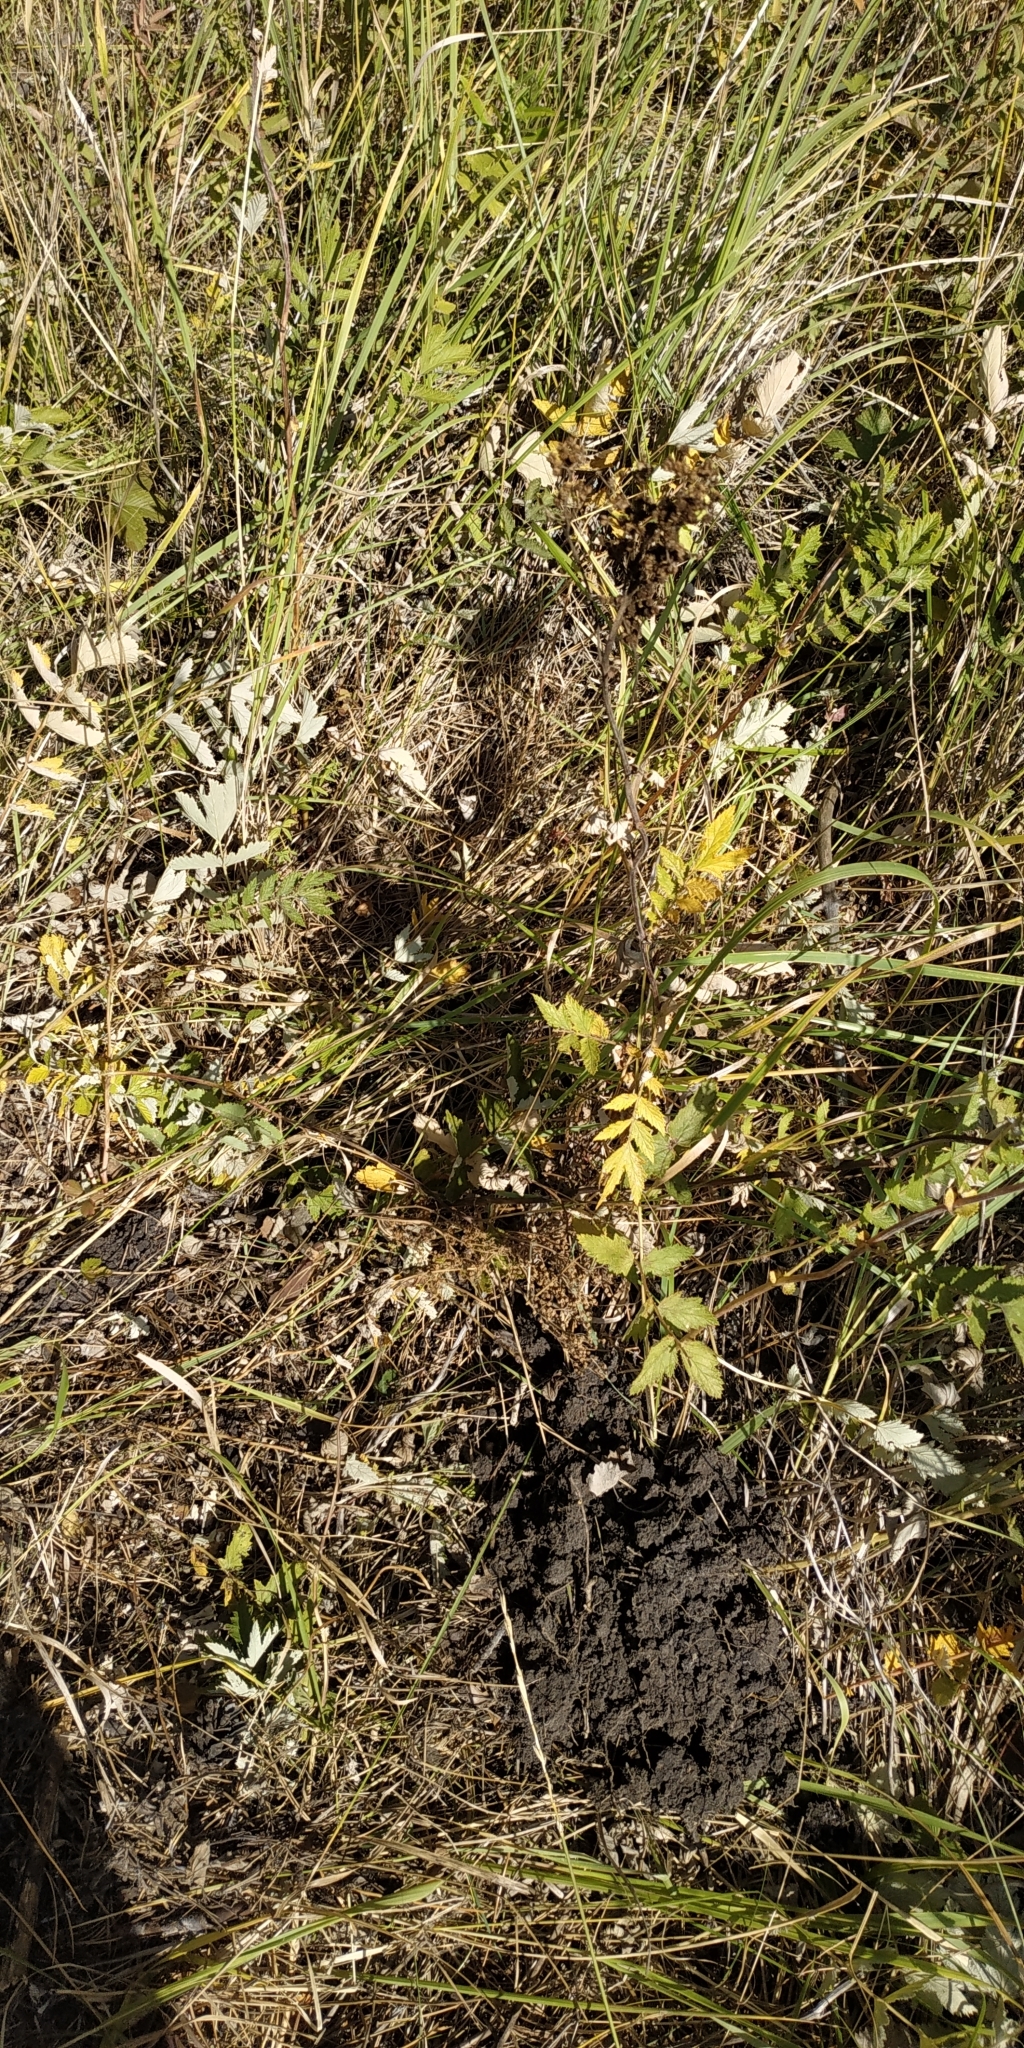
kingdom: Plantae
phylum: Tracheophyta
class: Magnoliopsida
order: Rosales
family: Rosaceae
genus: Filipendula
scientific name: Filipendula ulmaria
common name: Meadowsweet
